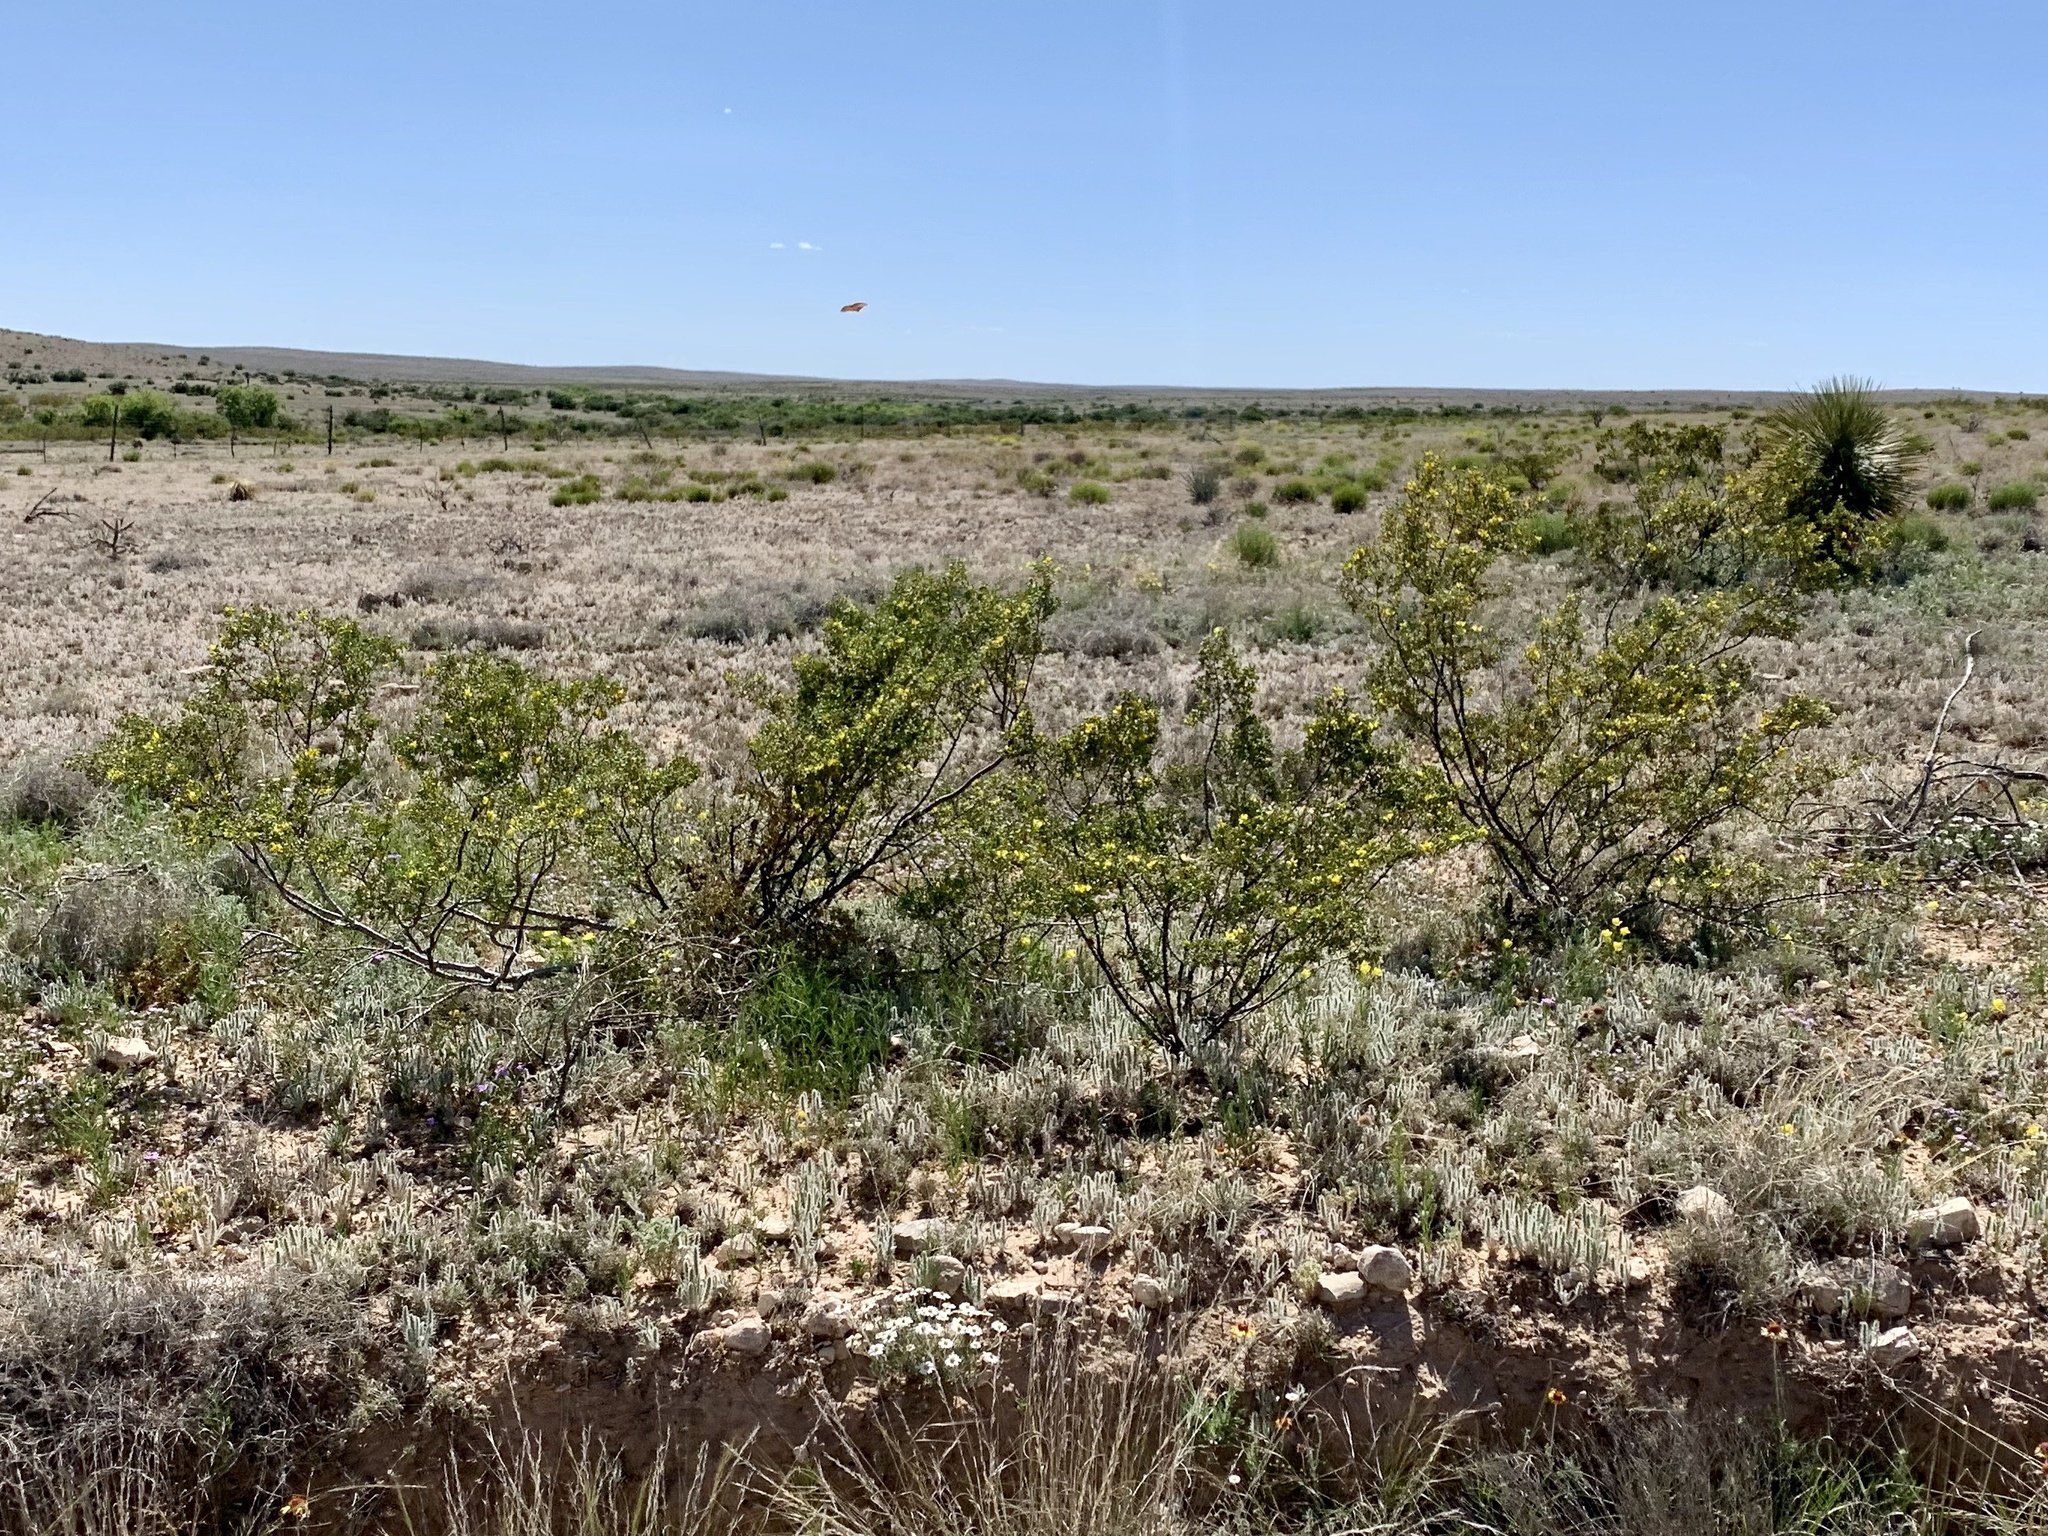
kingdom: Plantae
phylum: Tracheophyta
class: Magnoliopsida
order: Zygophyllales
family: Zygophyllaceae
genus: Larrea
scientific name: Larrea tridentata
